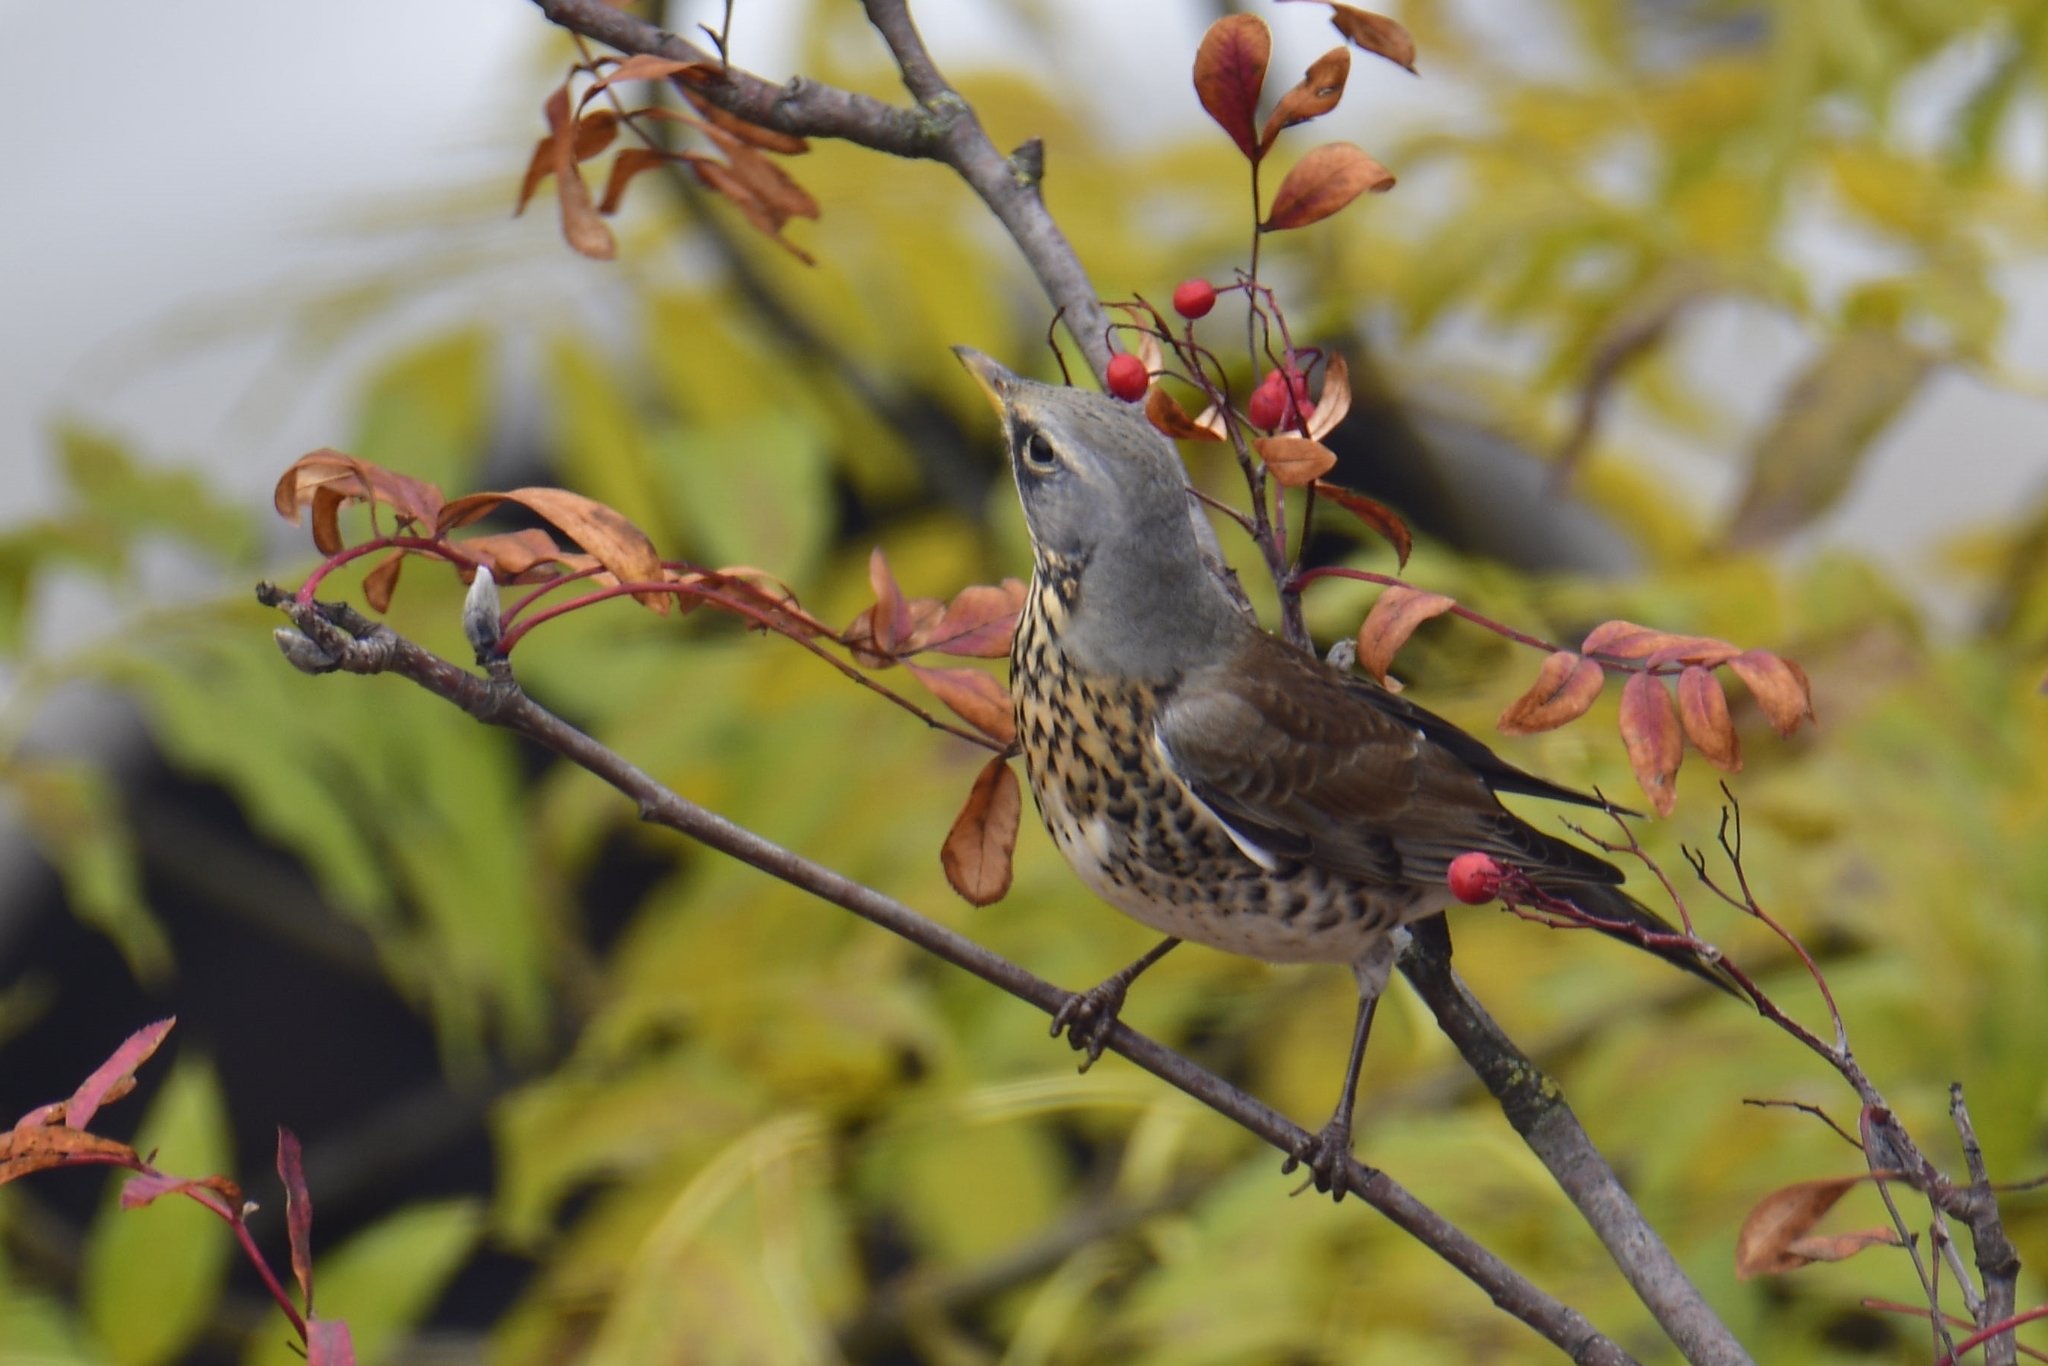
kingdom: Animalia
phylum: Chordata
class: Aves
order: Passeriformes
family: Turdidae
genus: Turdus
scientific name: Turdus pilaris
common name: Fieldfare
